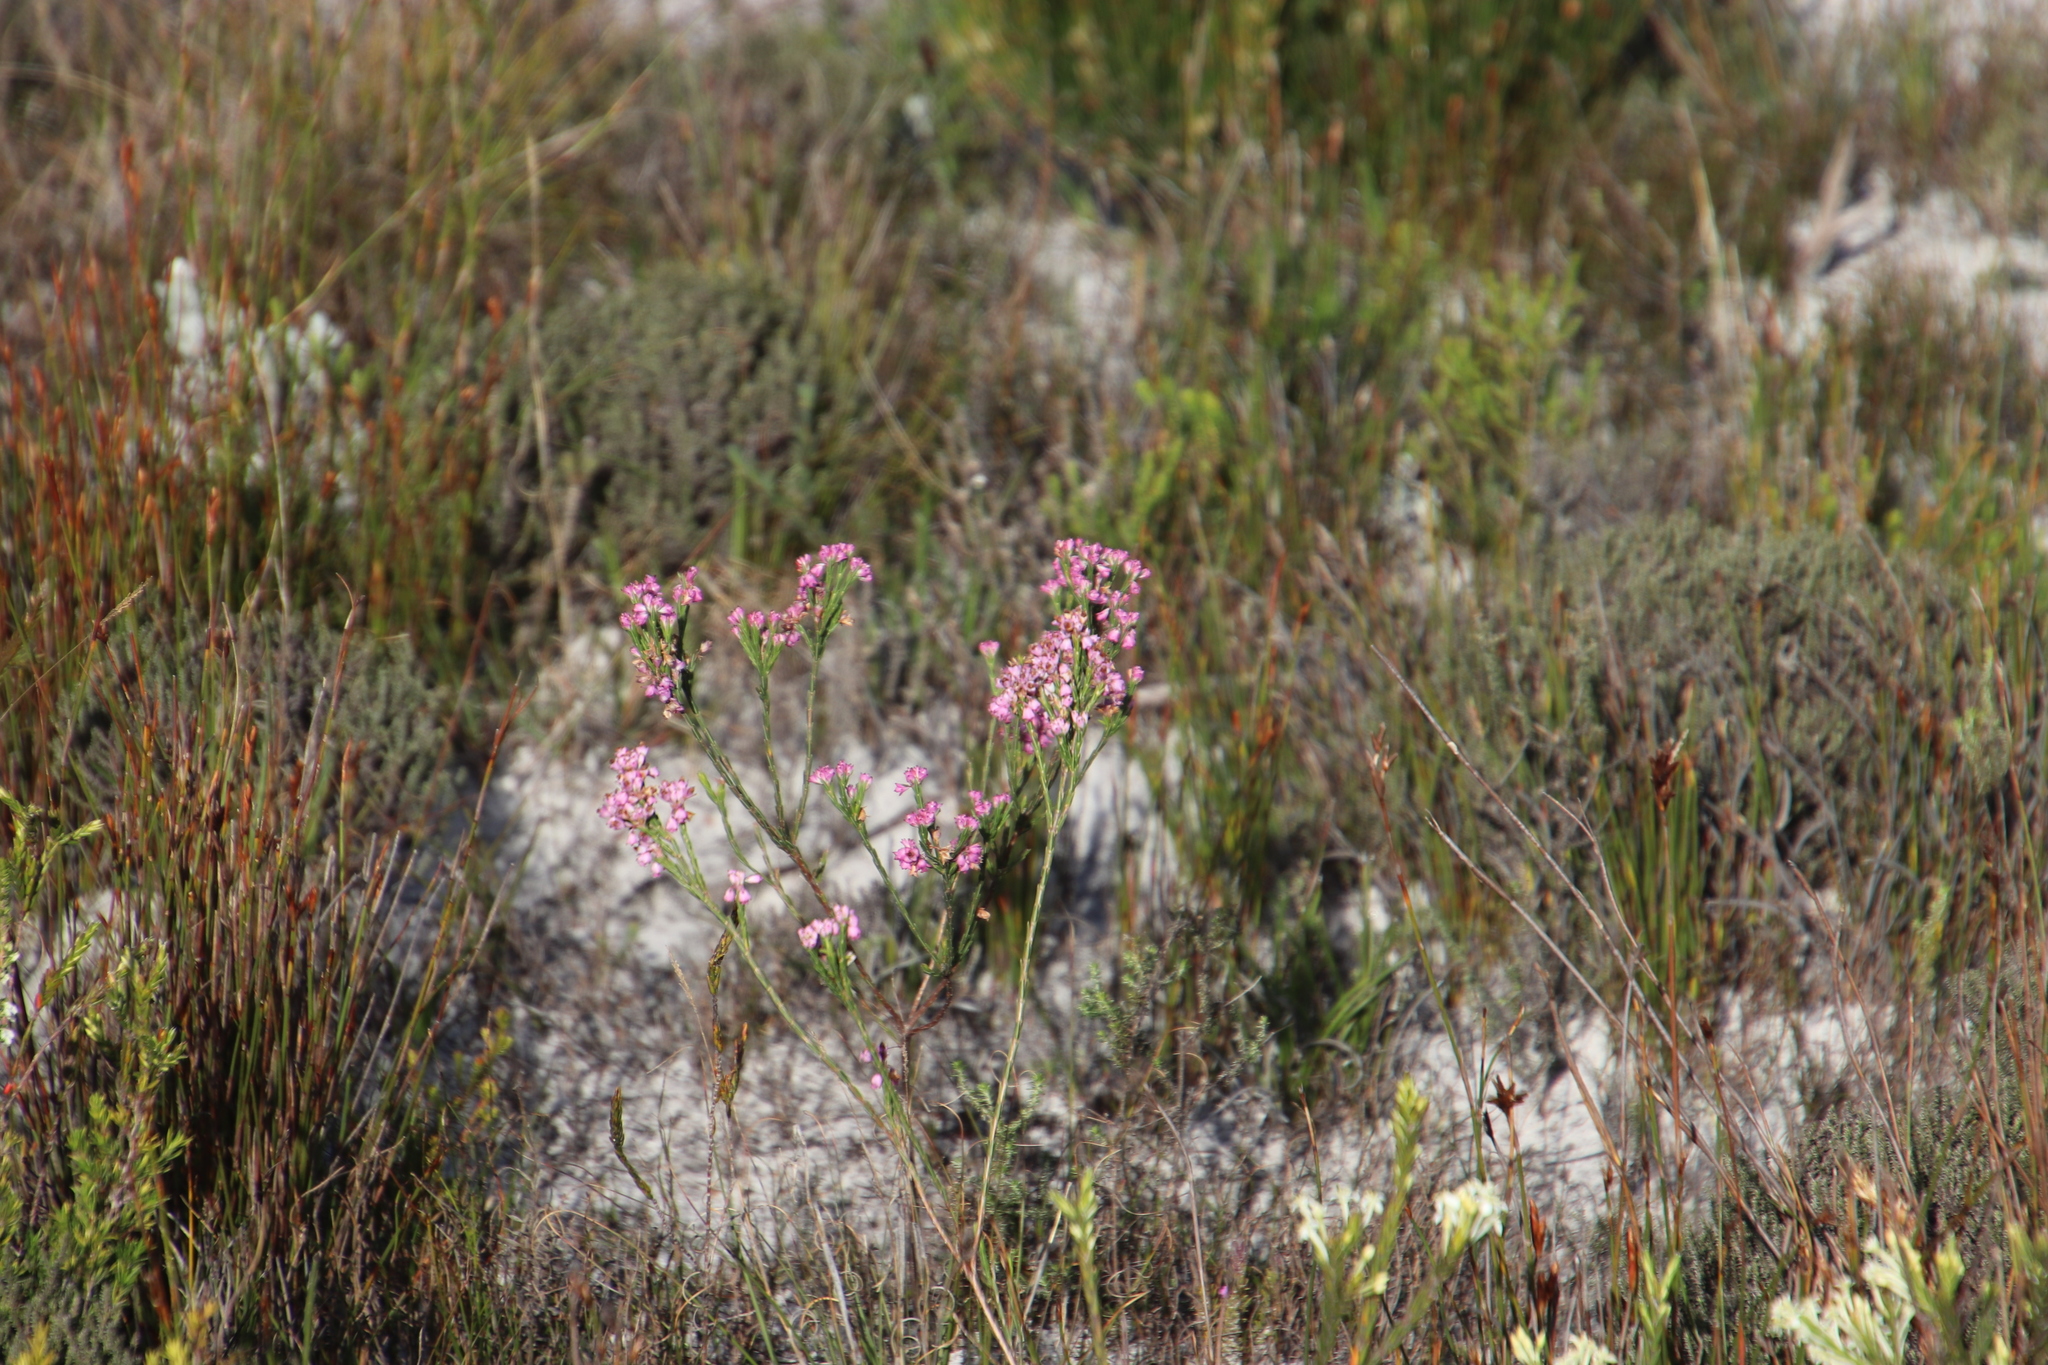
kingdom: Plantae
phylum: Tracheophyta
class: Magnoliopsida
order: Ericales
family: Ericaceae
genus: Erica
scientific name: Erica corifolia
